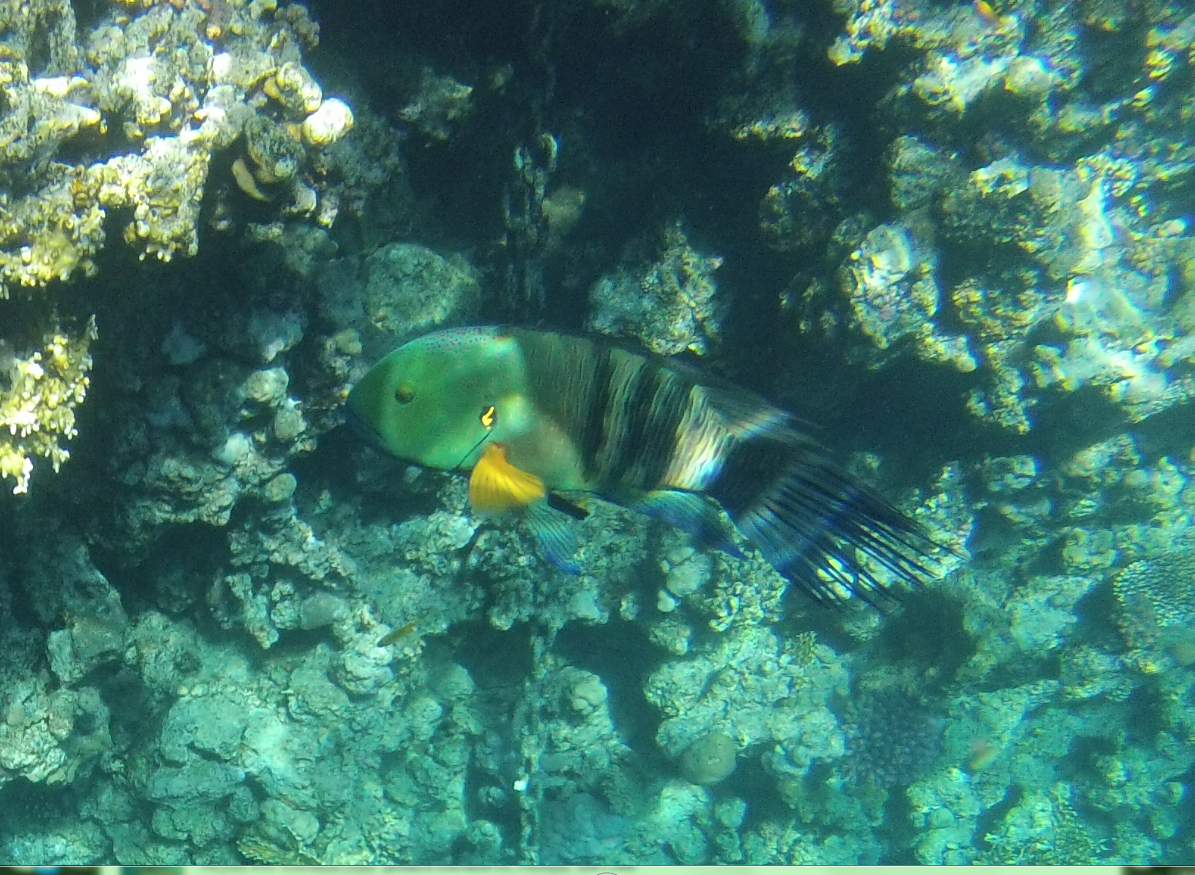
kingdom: Animalia
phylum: Chordata
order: Perciformes
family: Labridae
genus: Cheilinus
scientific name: Cheilinus lunulatus
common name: Broomtail wrasse
